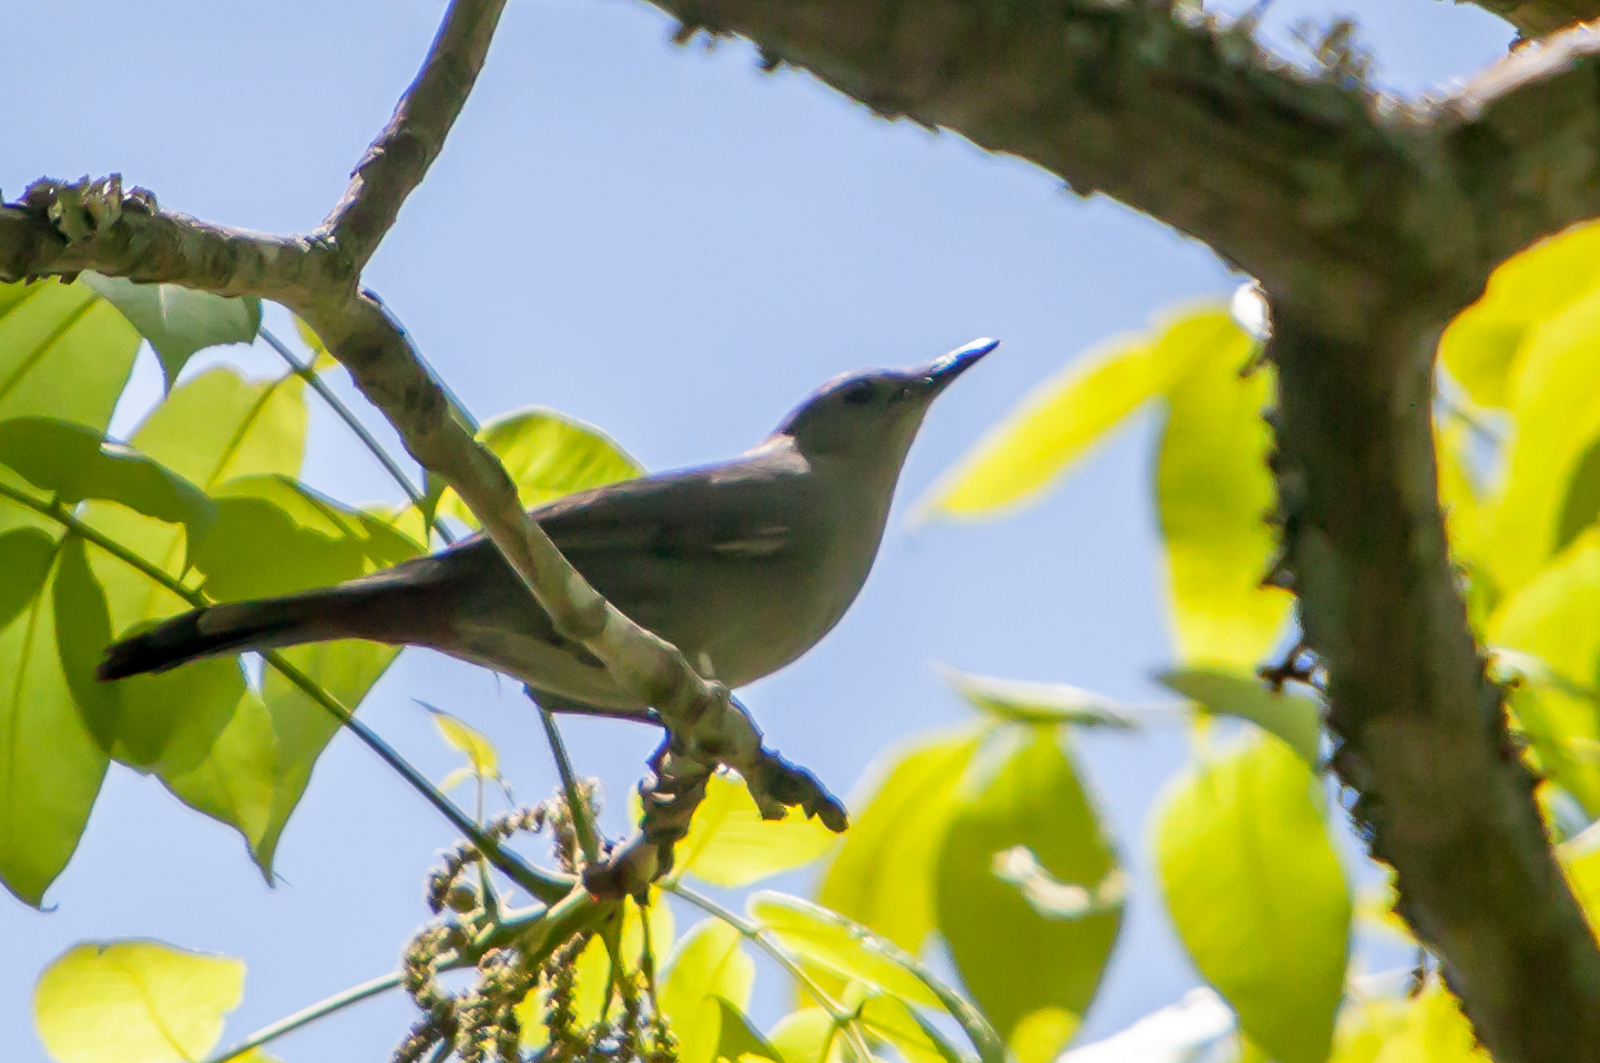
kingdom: Animalia
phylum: Chordata
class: Aves
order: Passeriformes
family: Mimidae
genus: Dumetella
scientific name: Dumetella carolinensis
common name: Gray catbird
